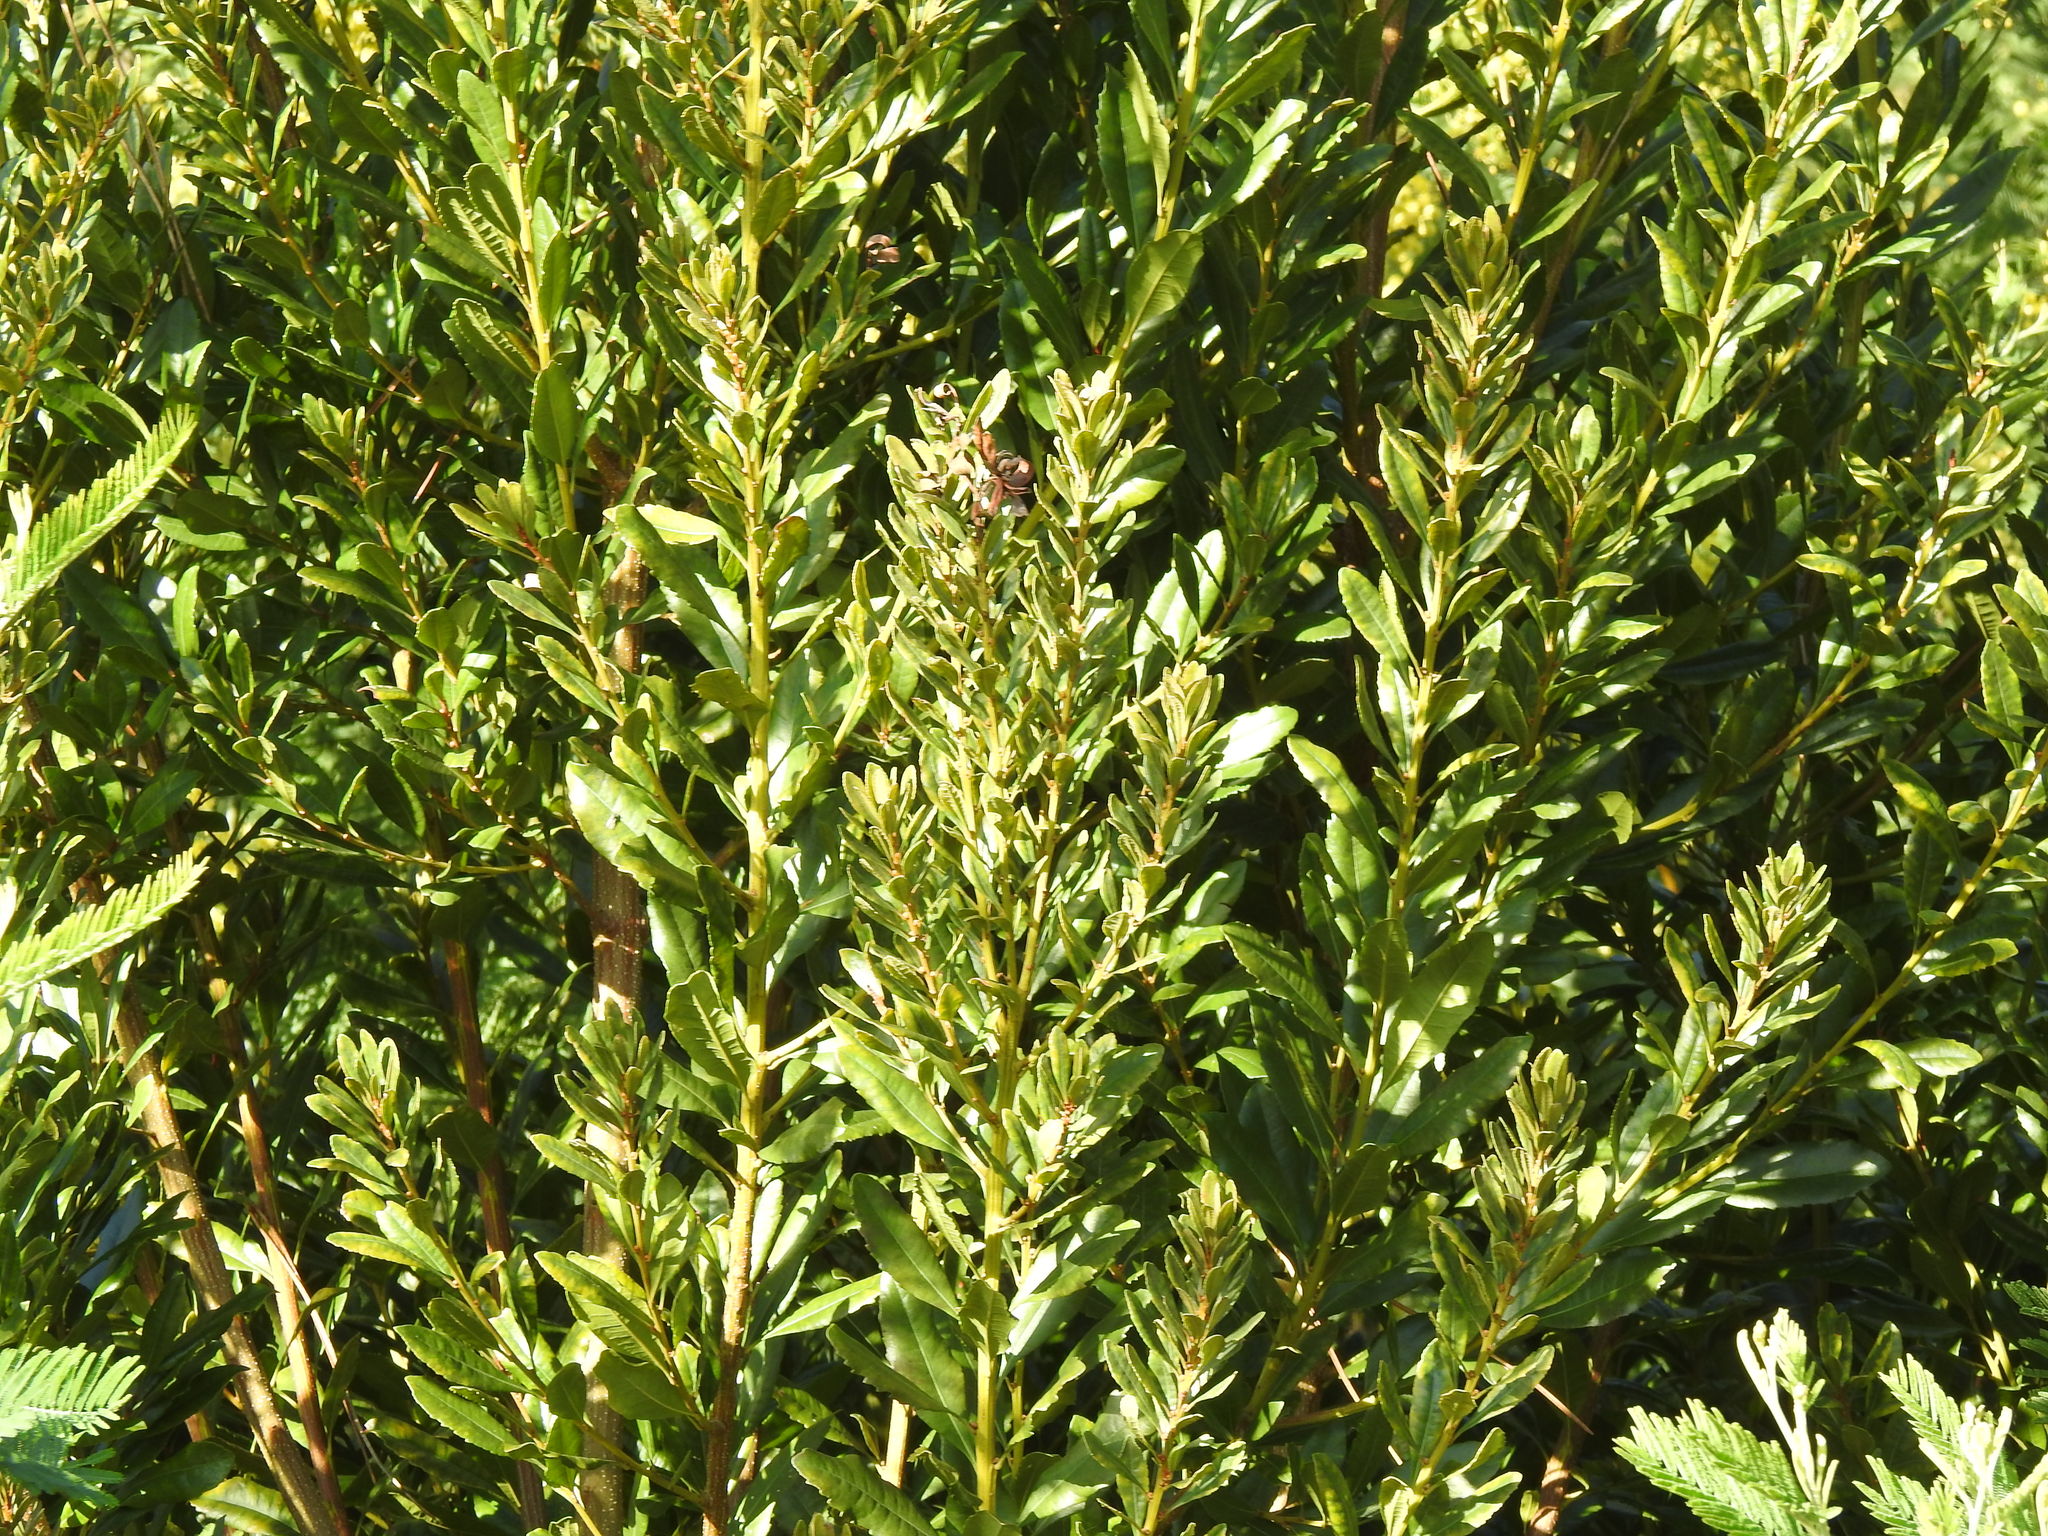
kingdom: Plantae
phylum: Tracheophyta
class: Magnoliopsida
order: Fagales
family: Myricaceae
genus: Morella
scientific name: Morella faya
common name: Firetree
